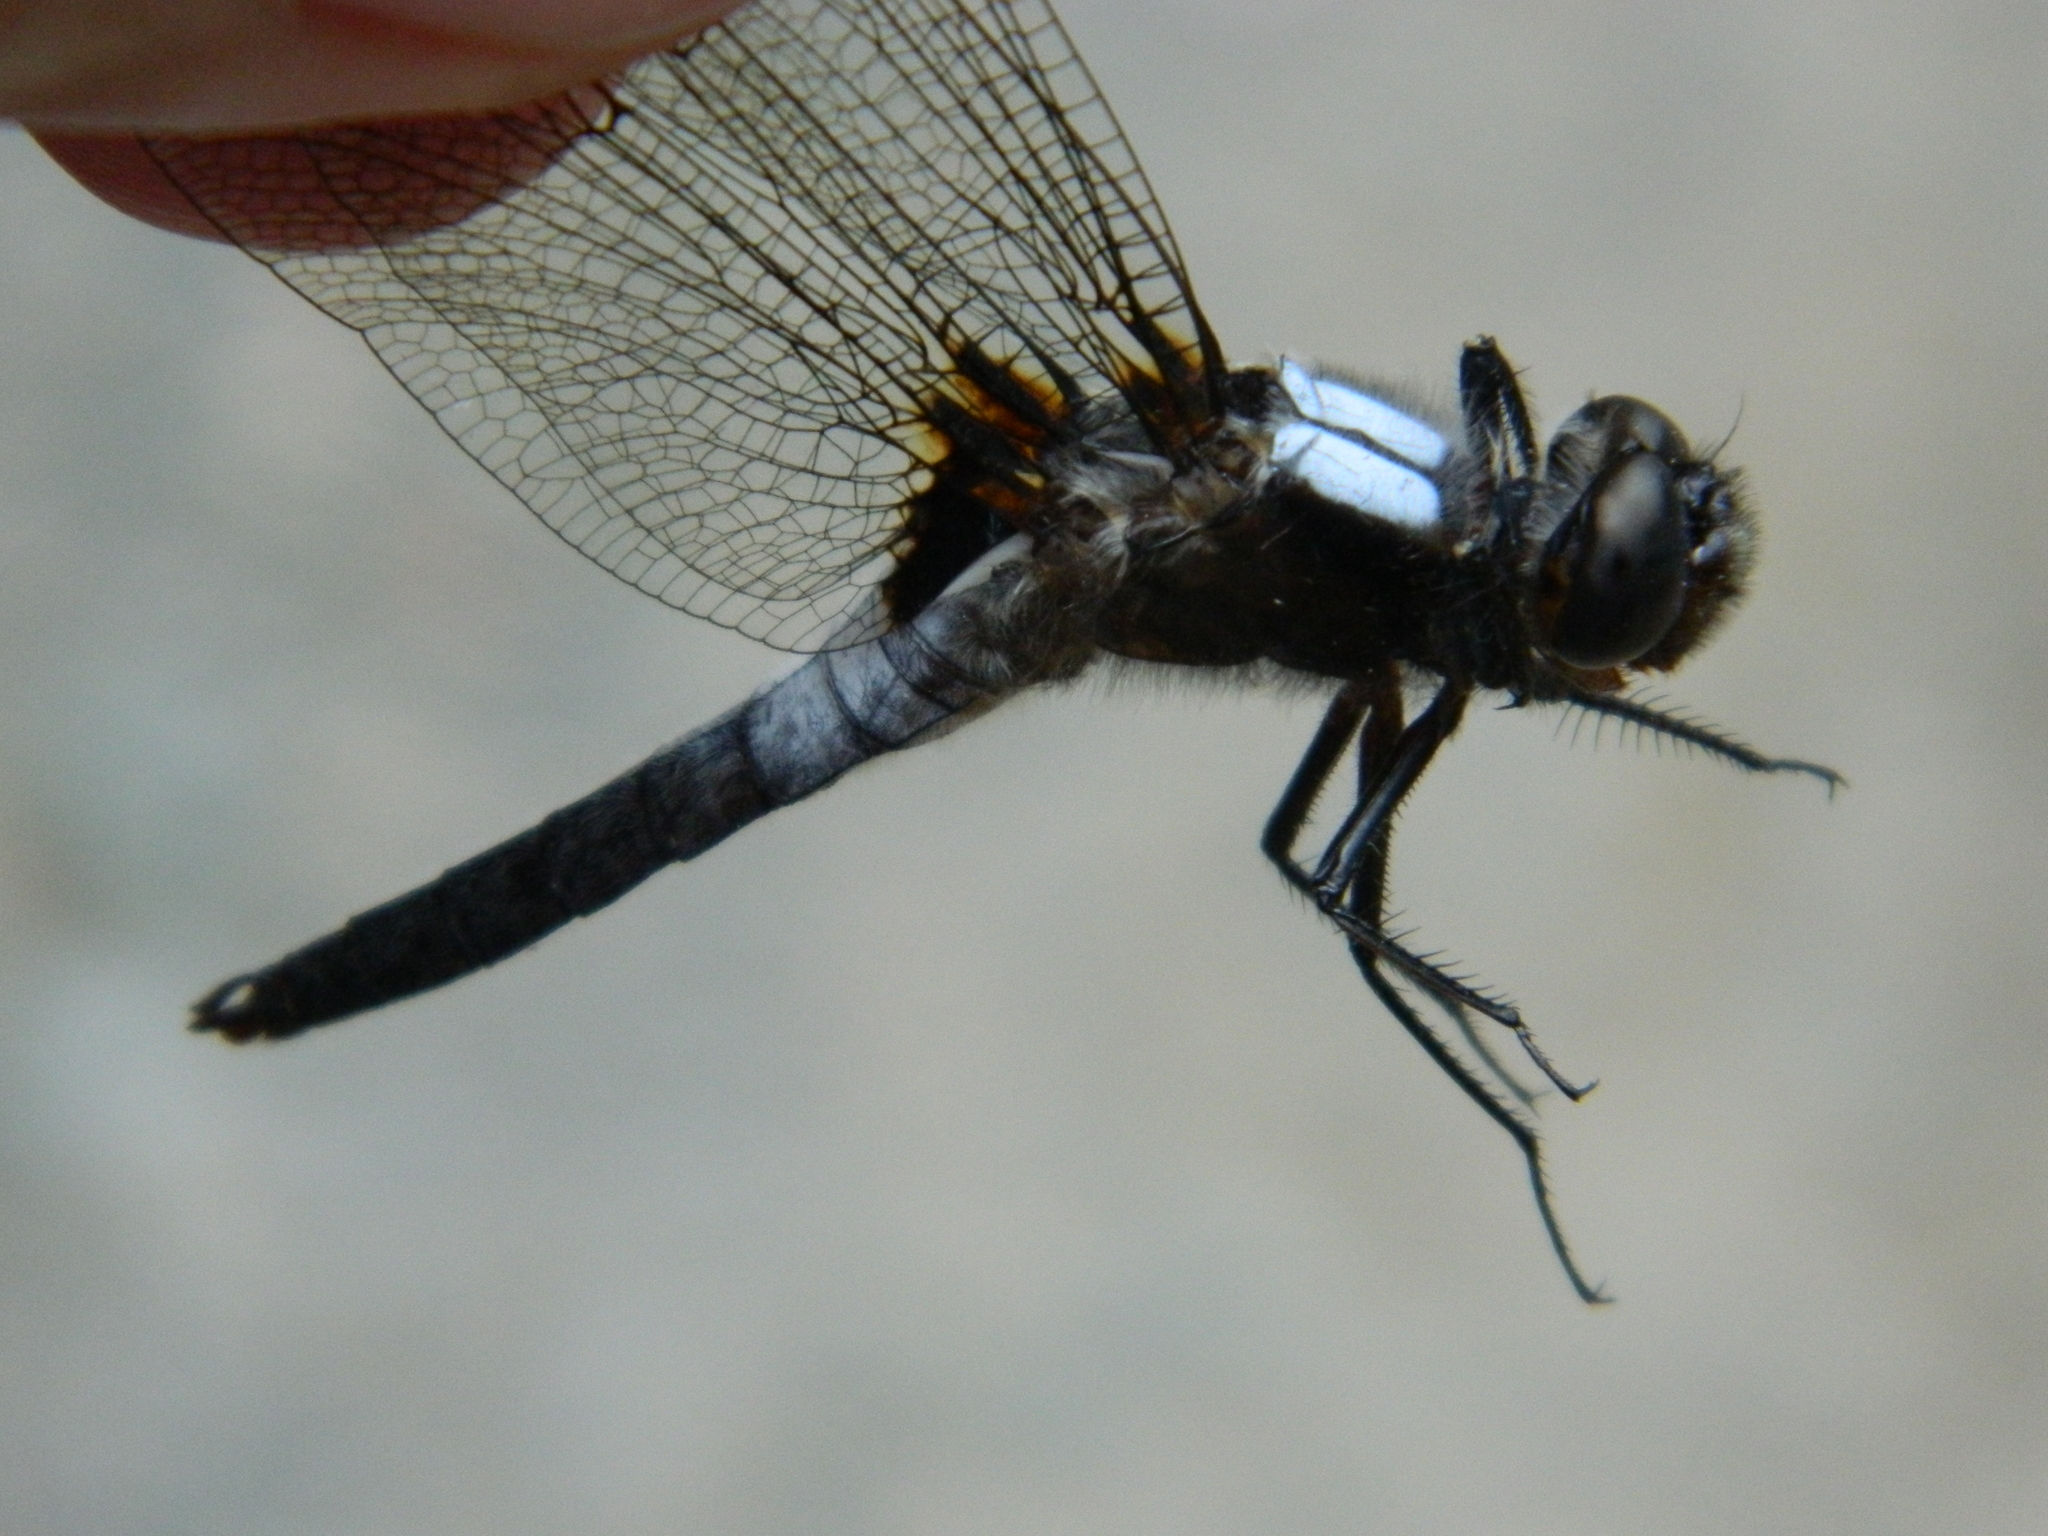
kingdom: Animalia
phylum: Arthropoda
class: Insecta
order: Odonata
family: Libellulidae
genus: Ladona
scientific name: Ladona julia
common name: Chalk-fronted corporal
